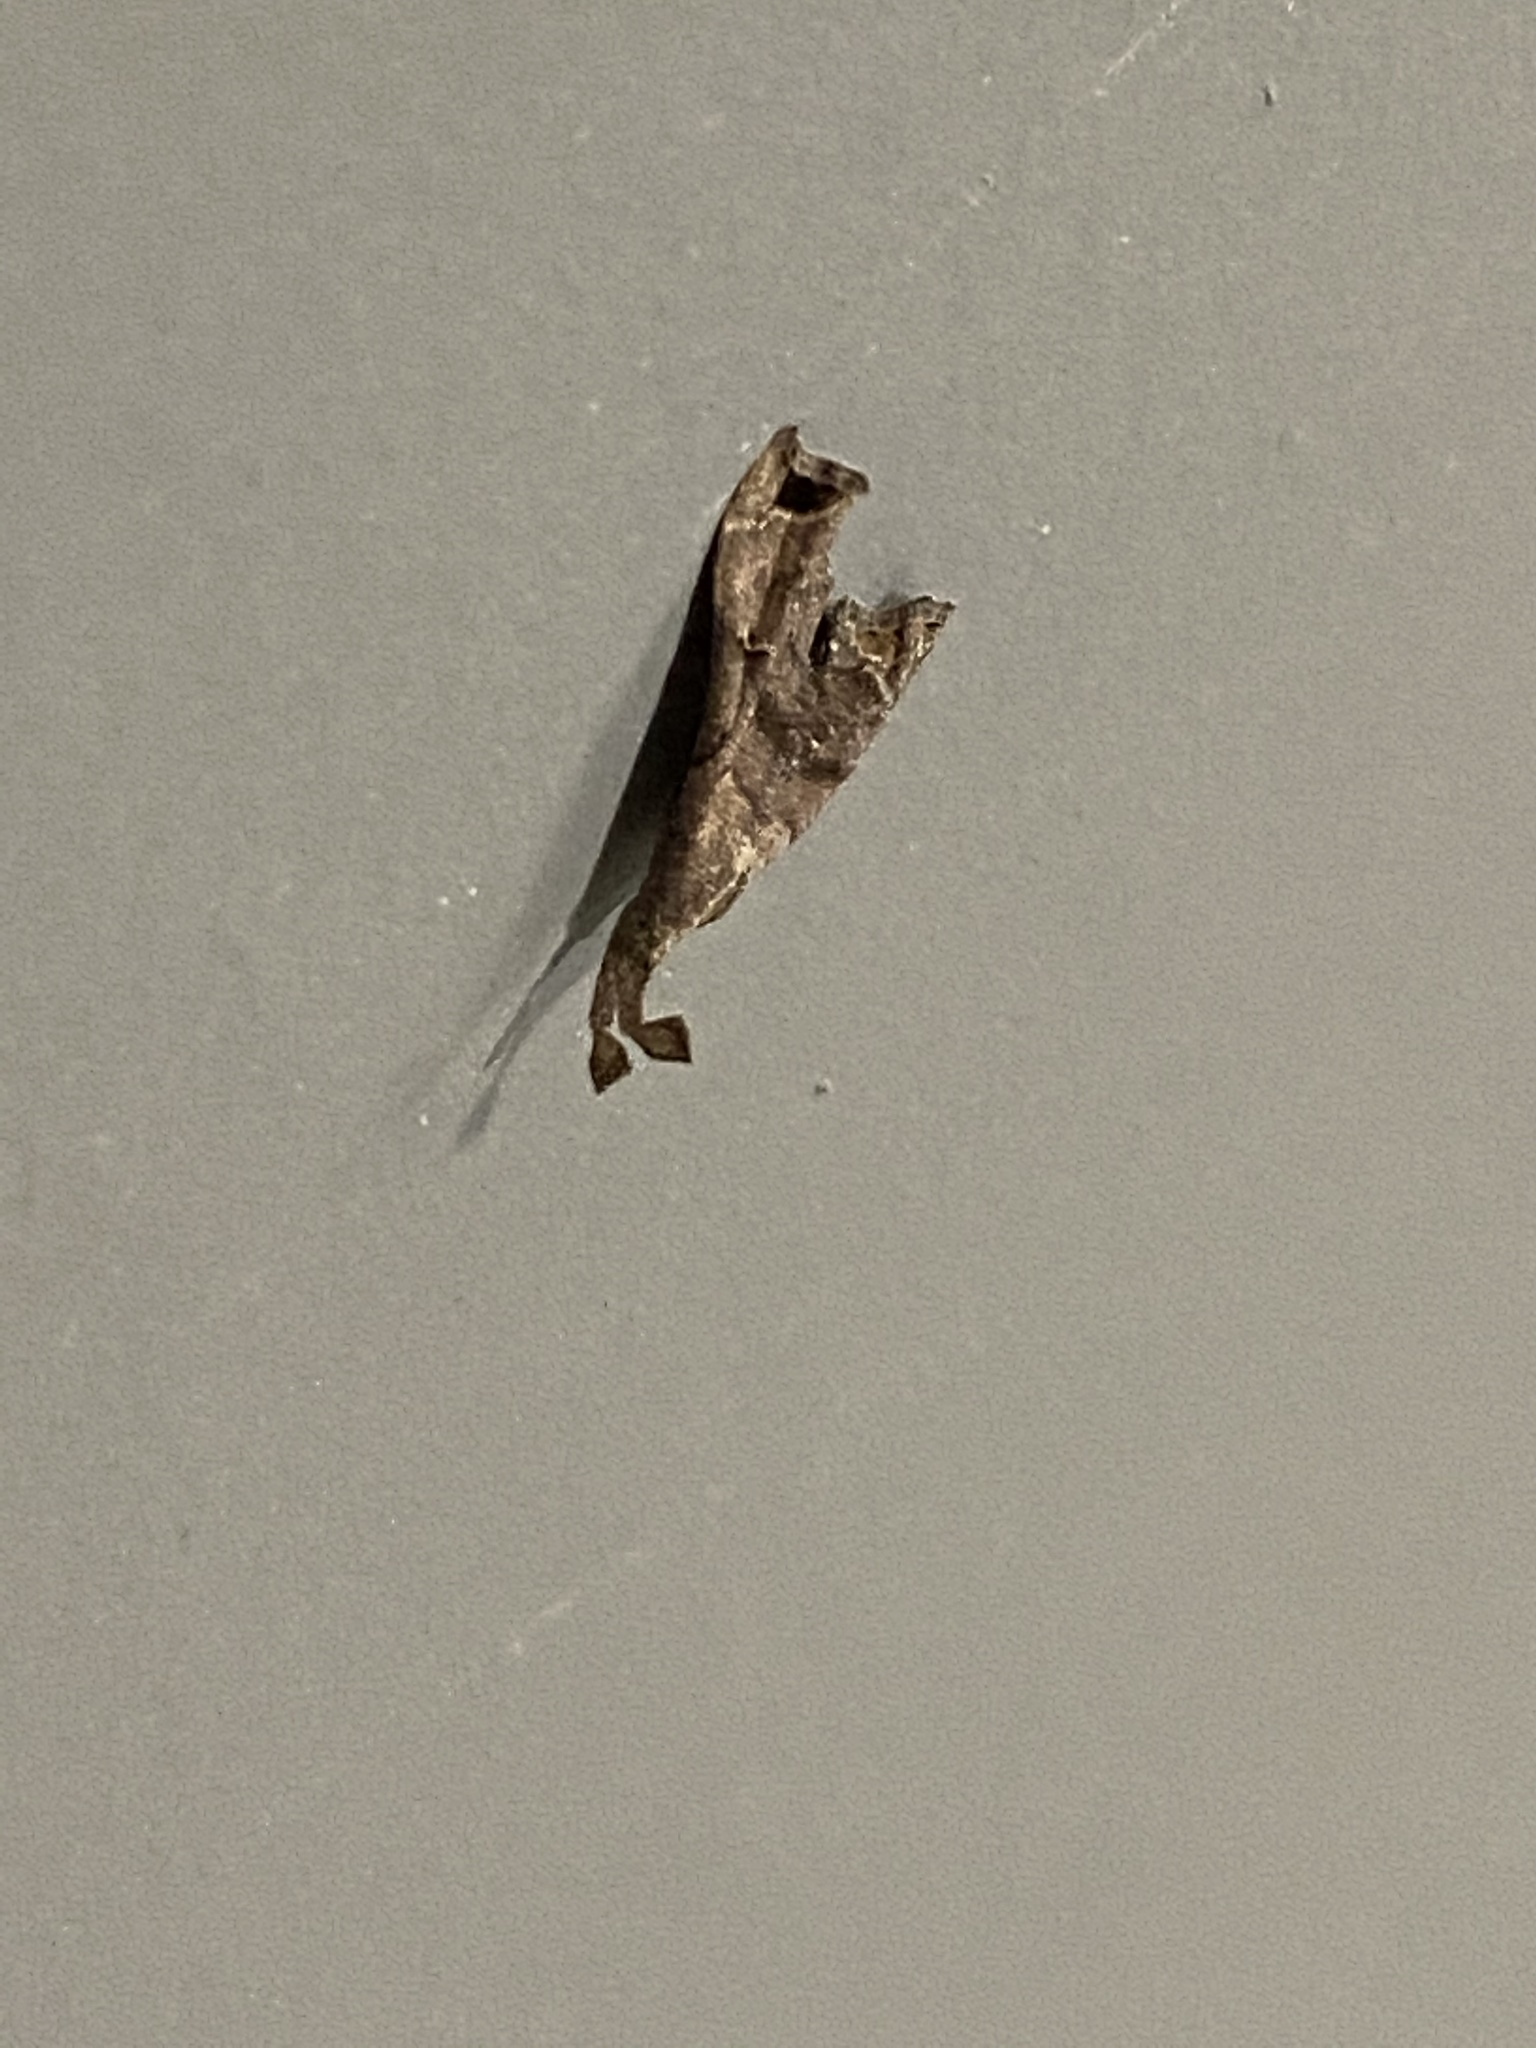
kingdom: Animalia
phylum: Arthropoda
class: Insecta
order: Lepidoptera
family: Erebidae
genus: Palthis
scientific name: Palthis asopialis
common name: Faint-spotted palthis moth
